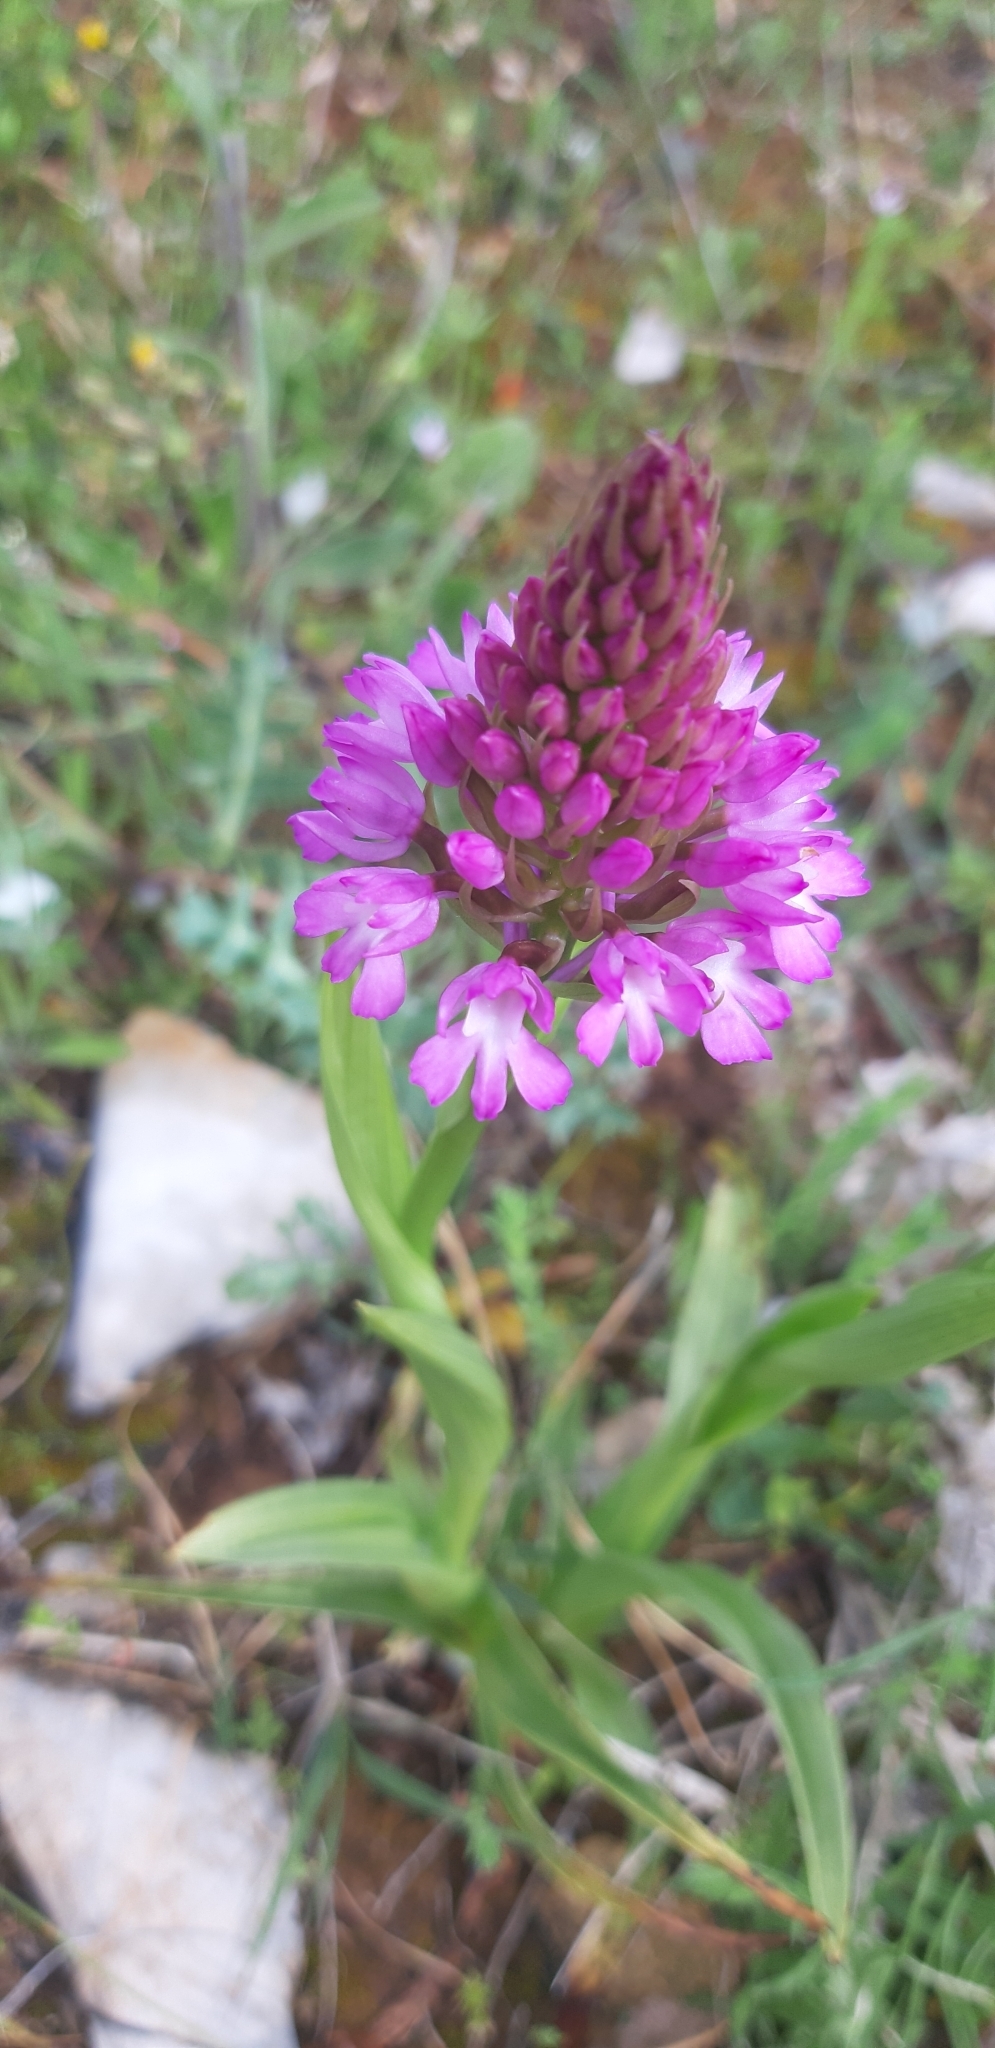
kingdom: Plantae
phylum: Tracheophyta
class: Liliopsida
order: Asparagales
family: Orchidaceae
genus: Anacamptis
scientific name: Anacamptis pyramidalis
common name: Pyramidal orchid
